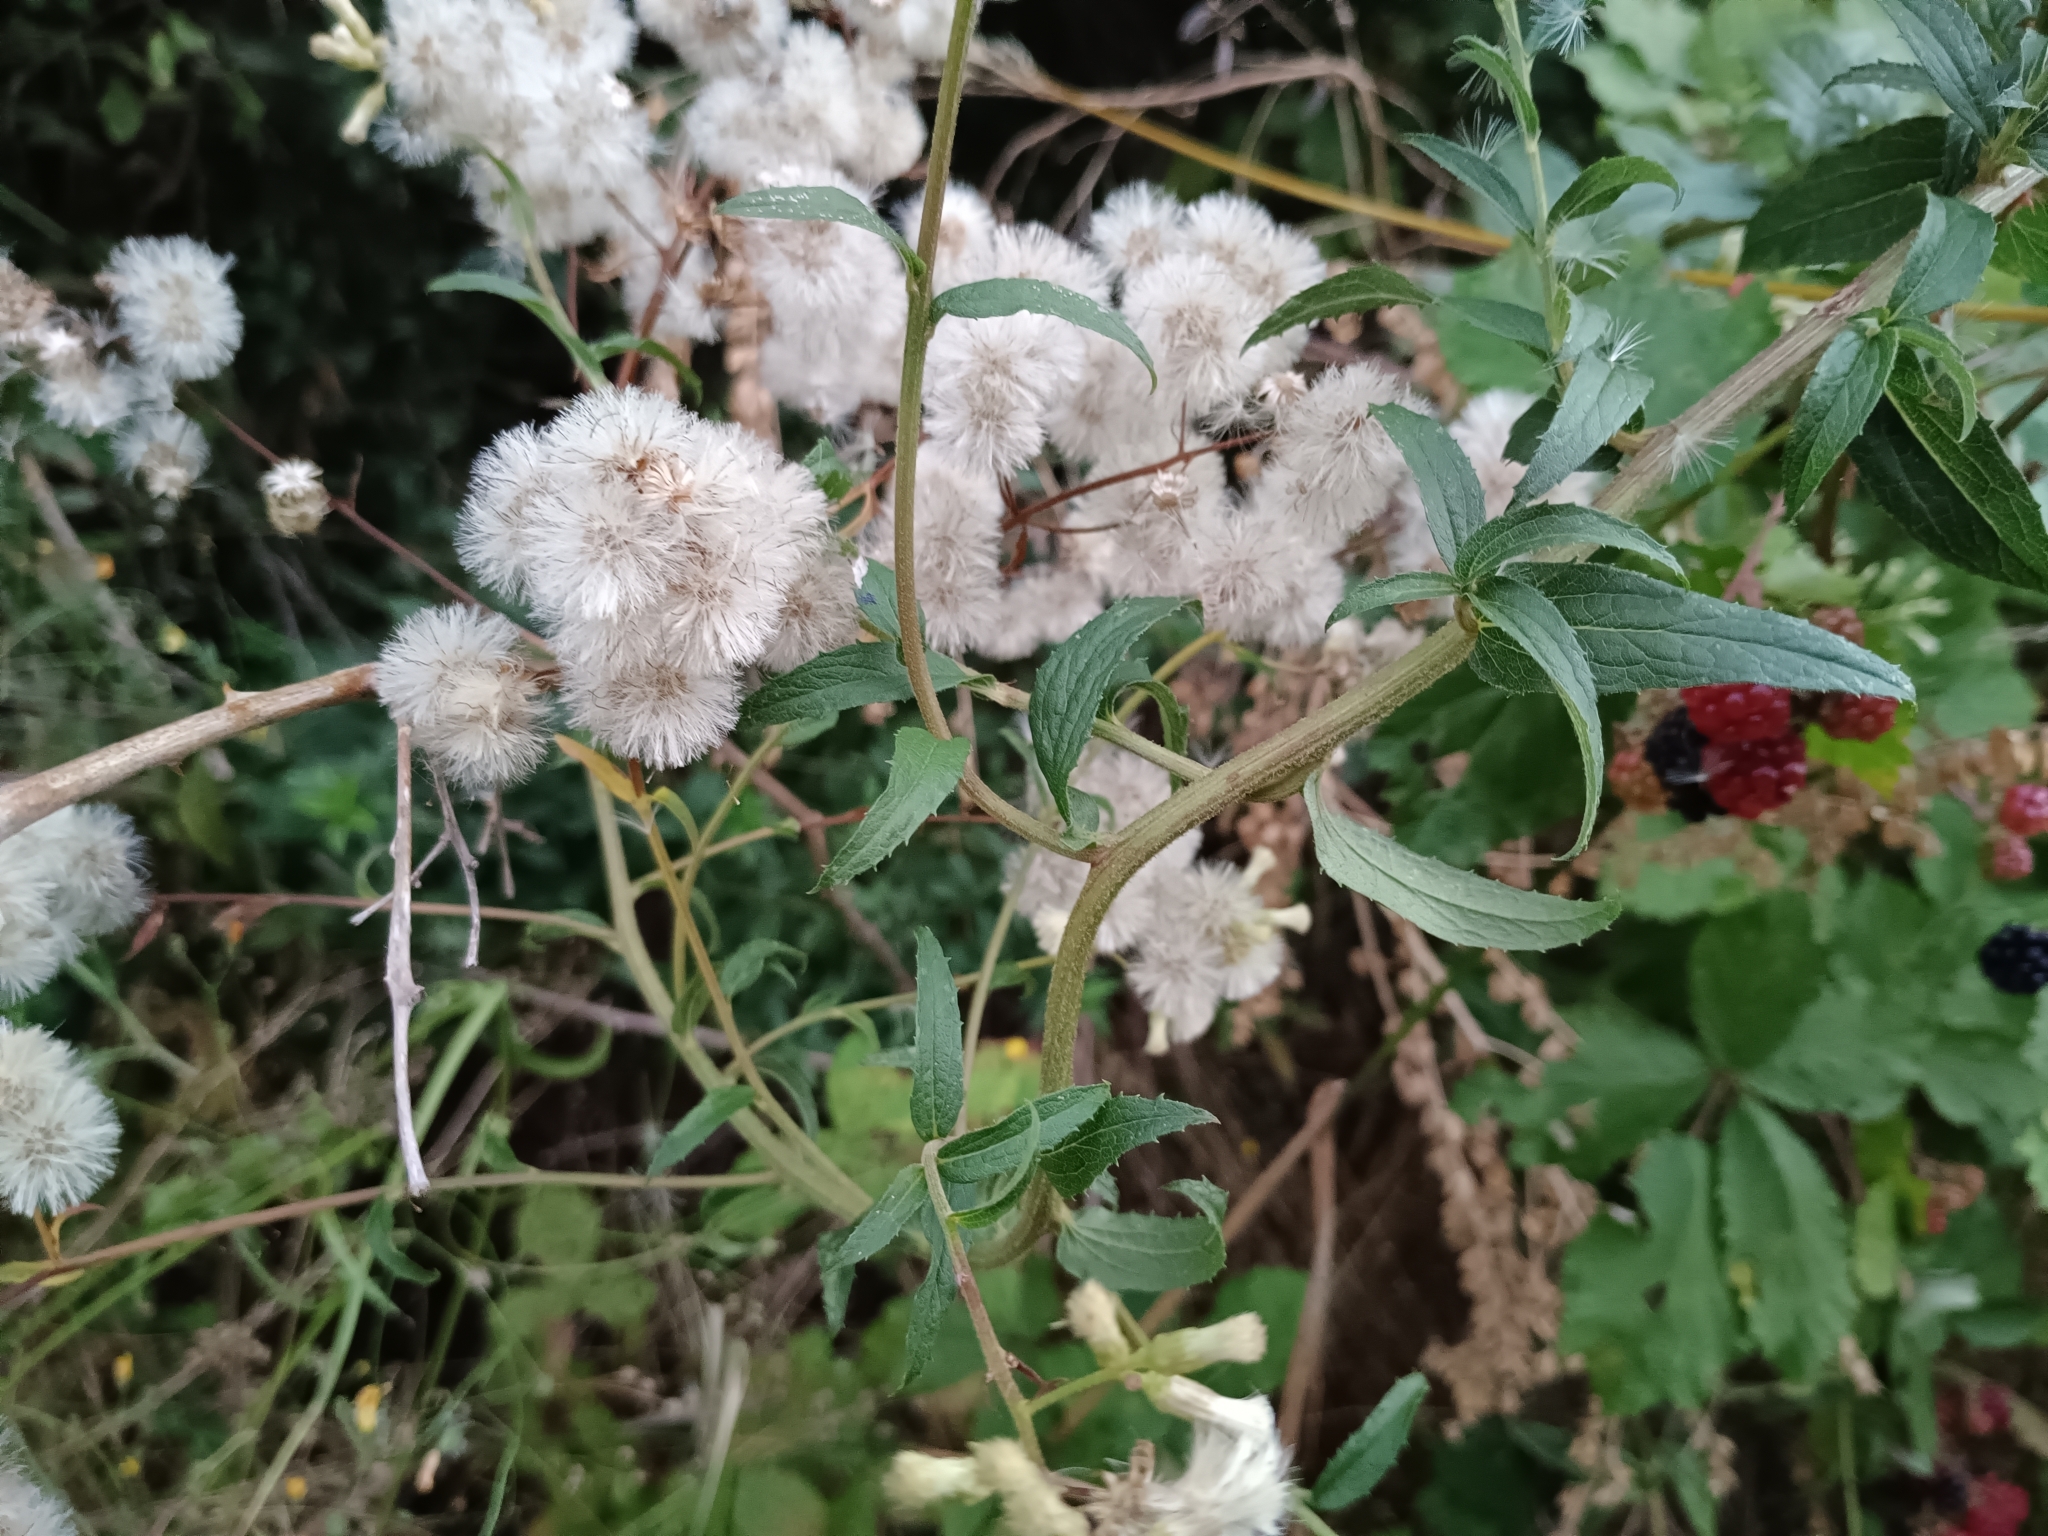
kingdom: Plantae
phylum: Tracheophyta
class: Magnoliopsida
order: Asterales
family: Asteraceae
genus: Baccharis
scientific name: Baccharis racemosa
